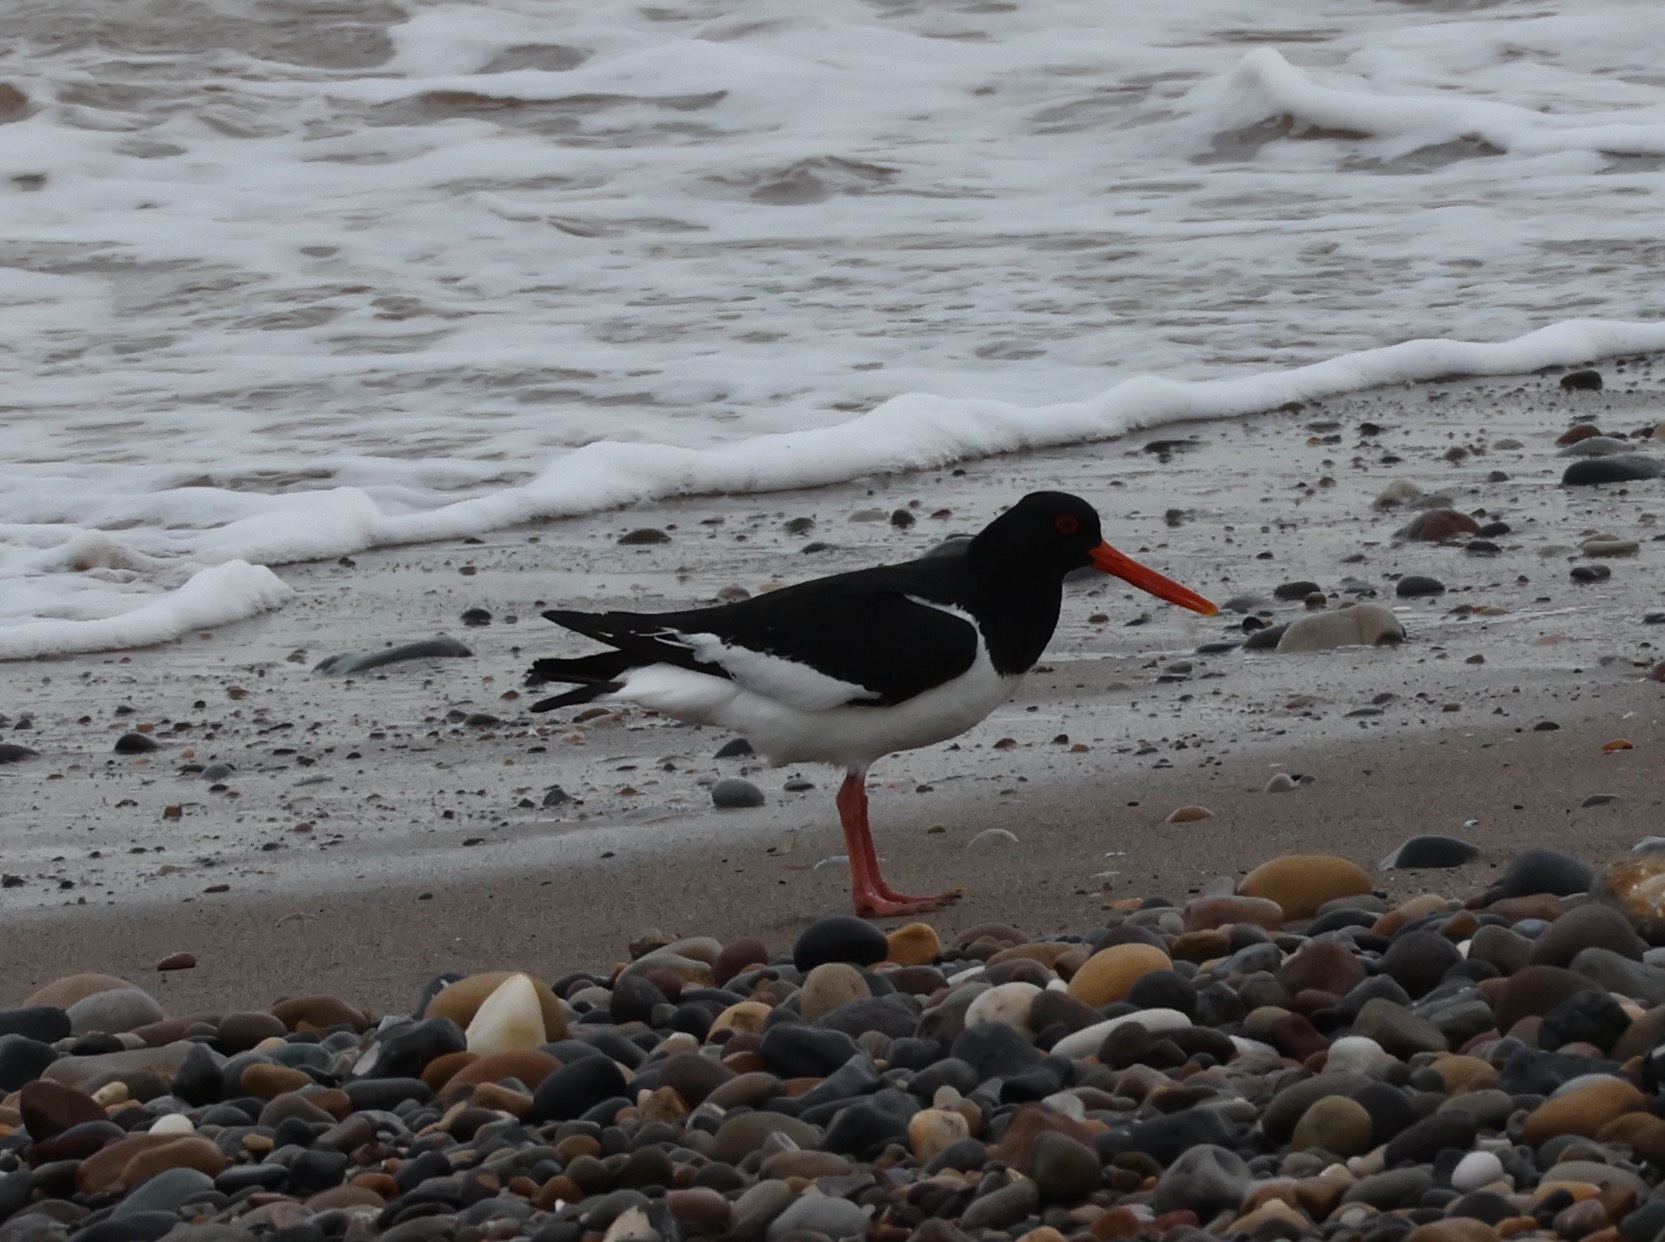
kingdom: Animalia
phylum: Chordata
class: Aves
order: Charadriiformes
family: Haematopodidae
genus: Haematopus
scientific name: Haematopus ostralegus
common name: Eurasian oystercatcher
